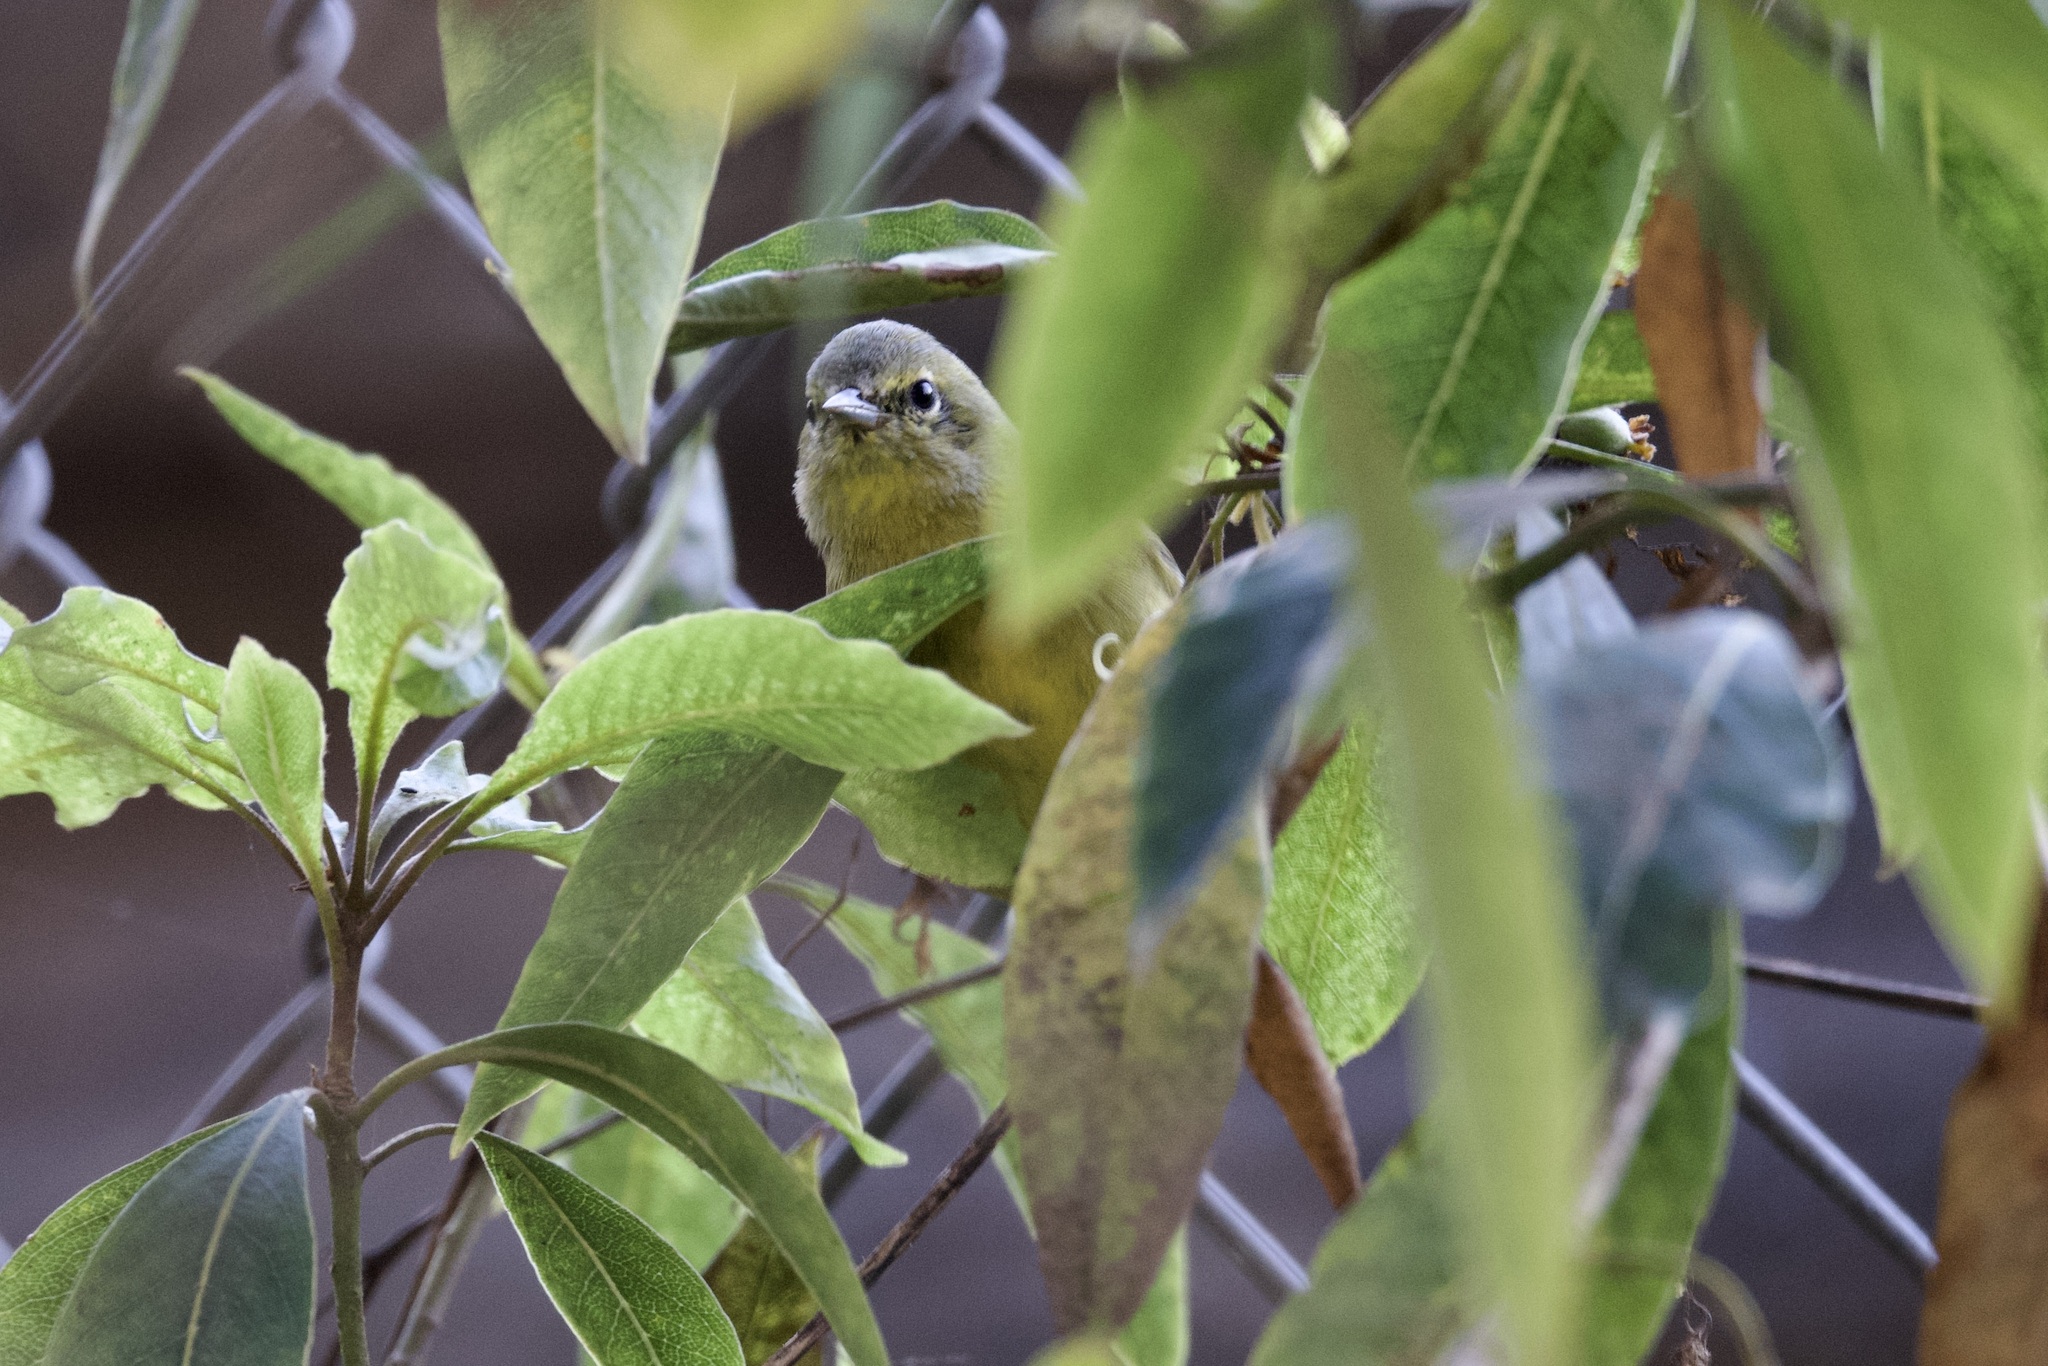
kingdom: Animalia
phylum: Chordata
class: Aves
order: Passeriformes
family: Parulidae
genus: Leiothlypis
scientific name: Leiothlypis celata
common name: Orange-crowned warbler
